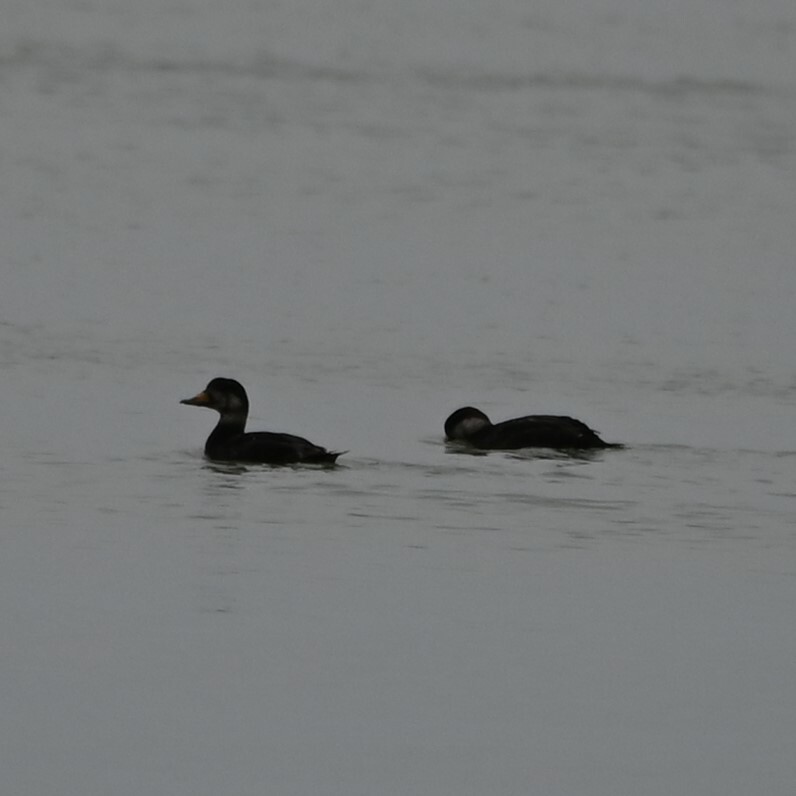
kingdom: Animalia
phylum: Chordata
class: Aves
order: Anseriformes
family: Anatidae
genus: Melanitta
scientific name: Melanitta americana
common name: Black scoter
